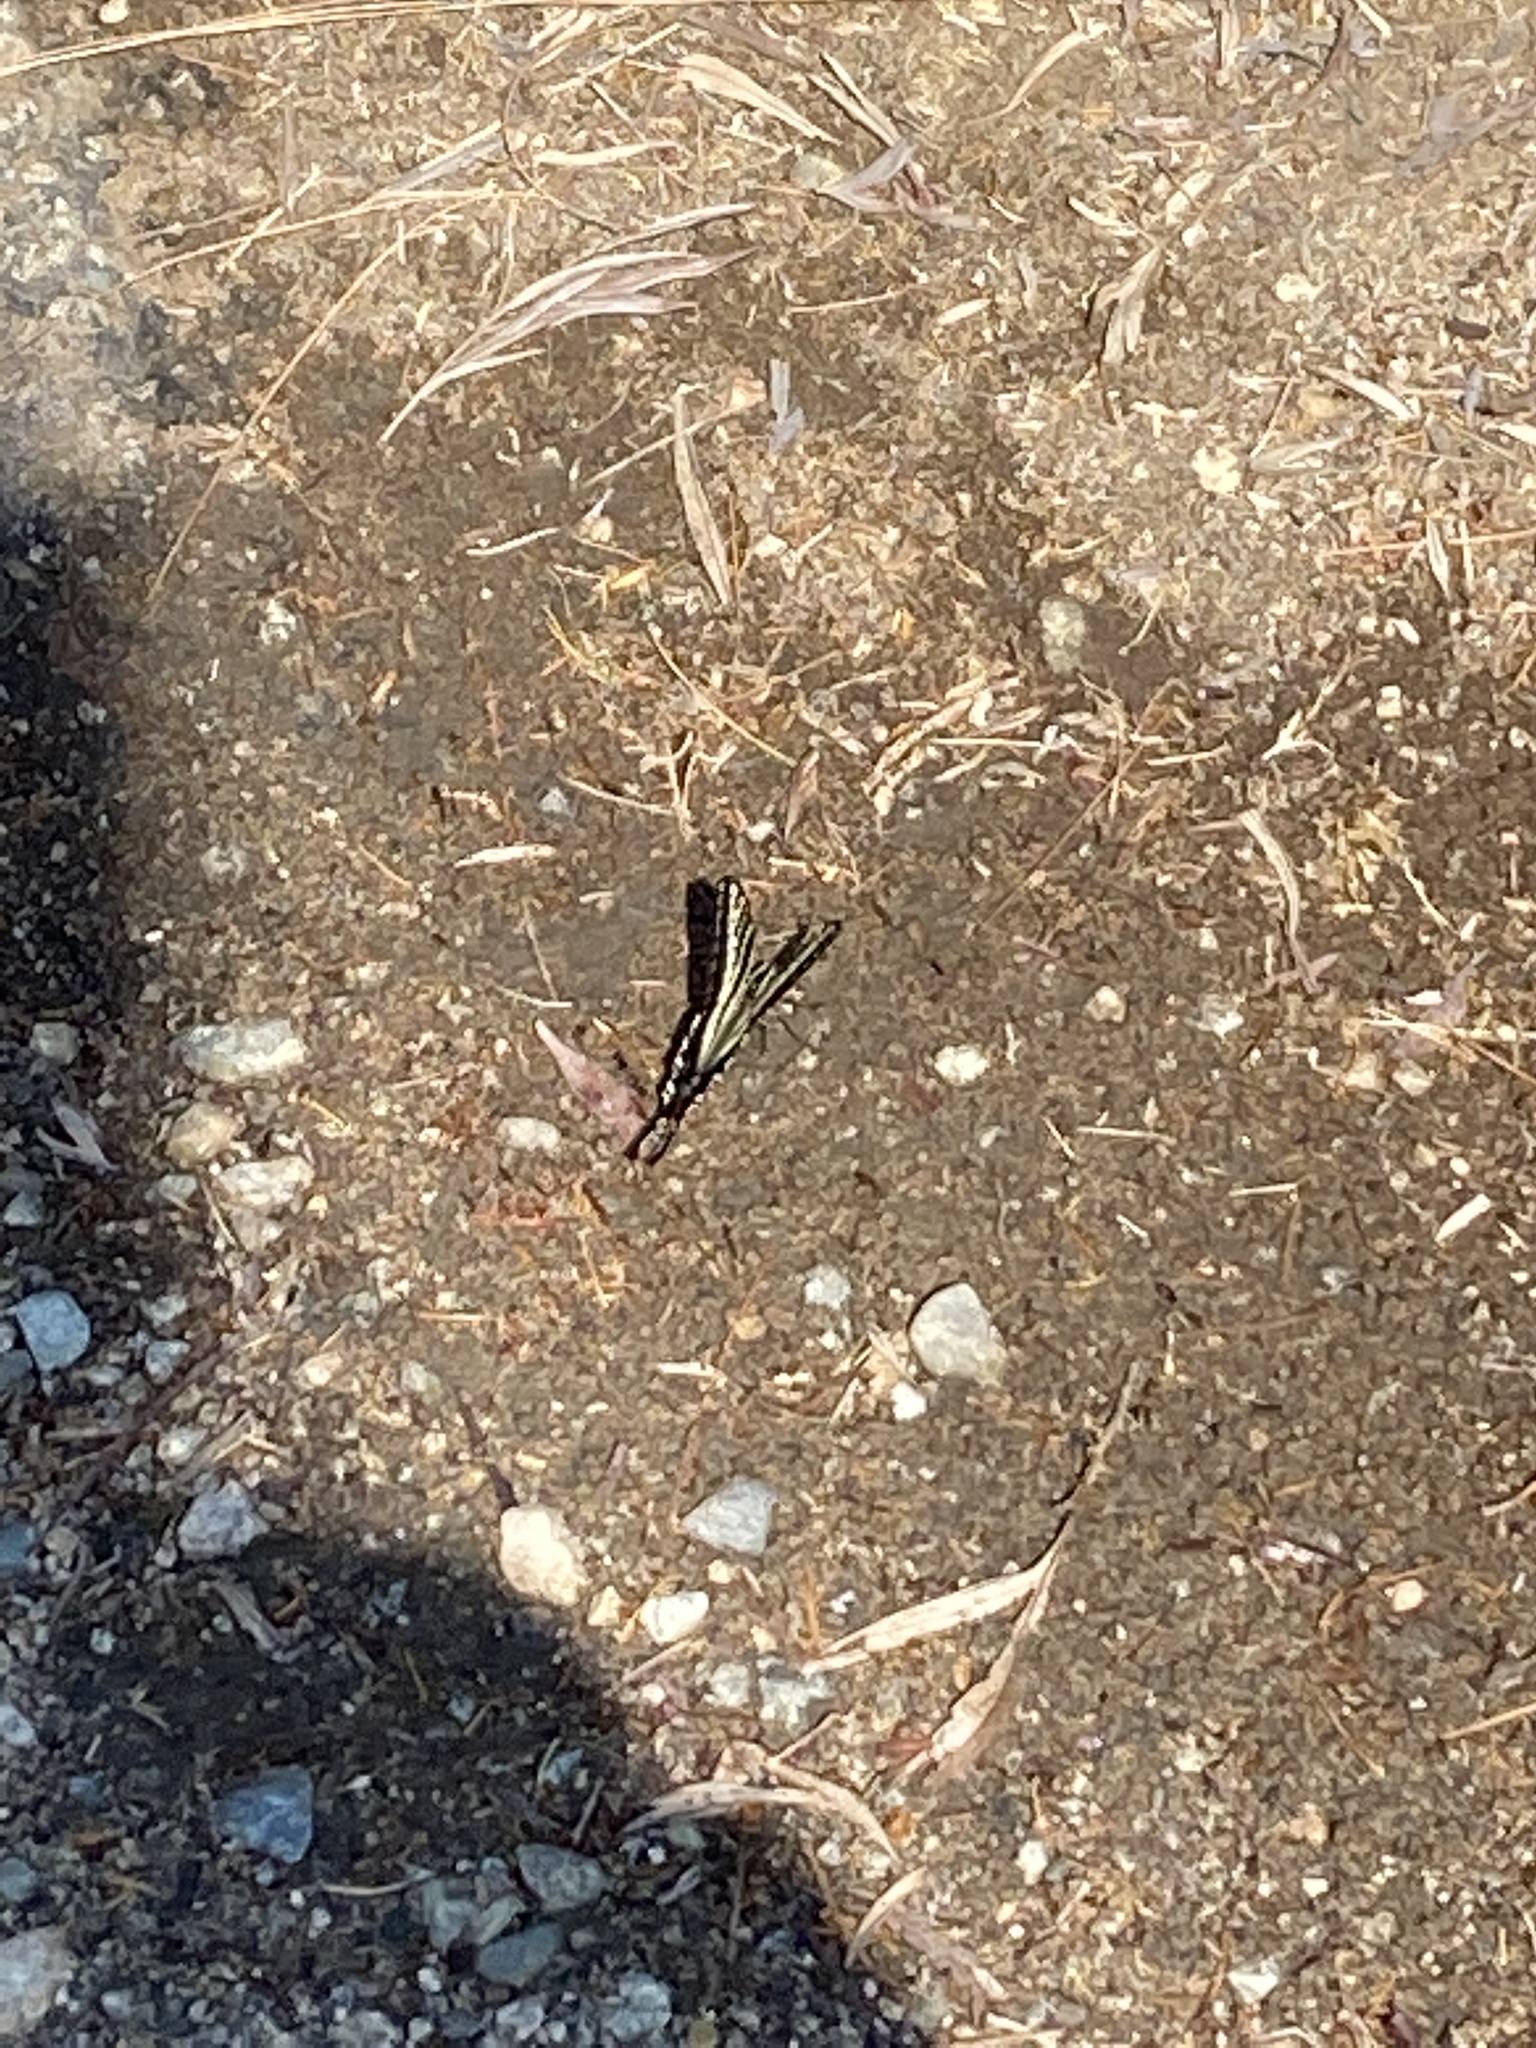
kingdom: Animalia
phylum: Arthropoda
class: Insecta
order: Lepidoptera
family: Papilionidae
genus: Papilio
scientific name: Papilio eurymedon
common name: Pale tiger swallowtail
